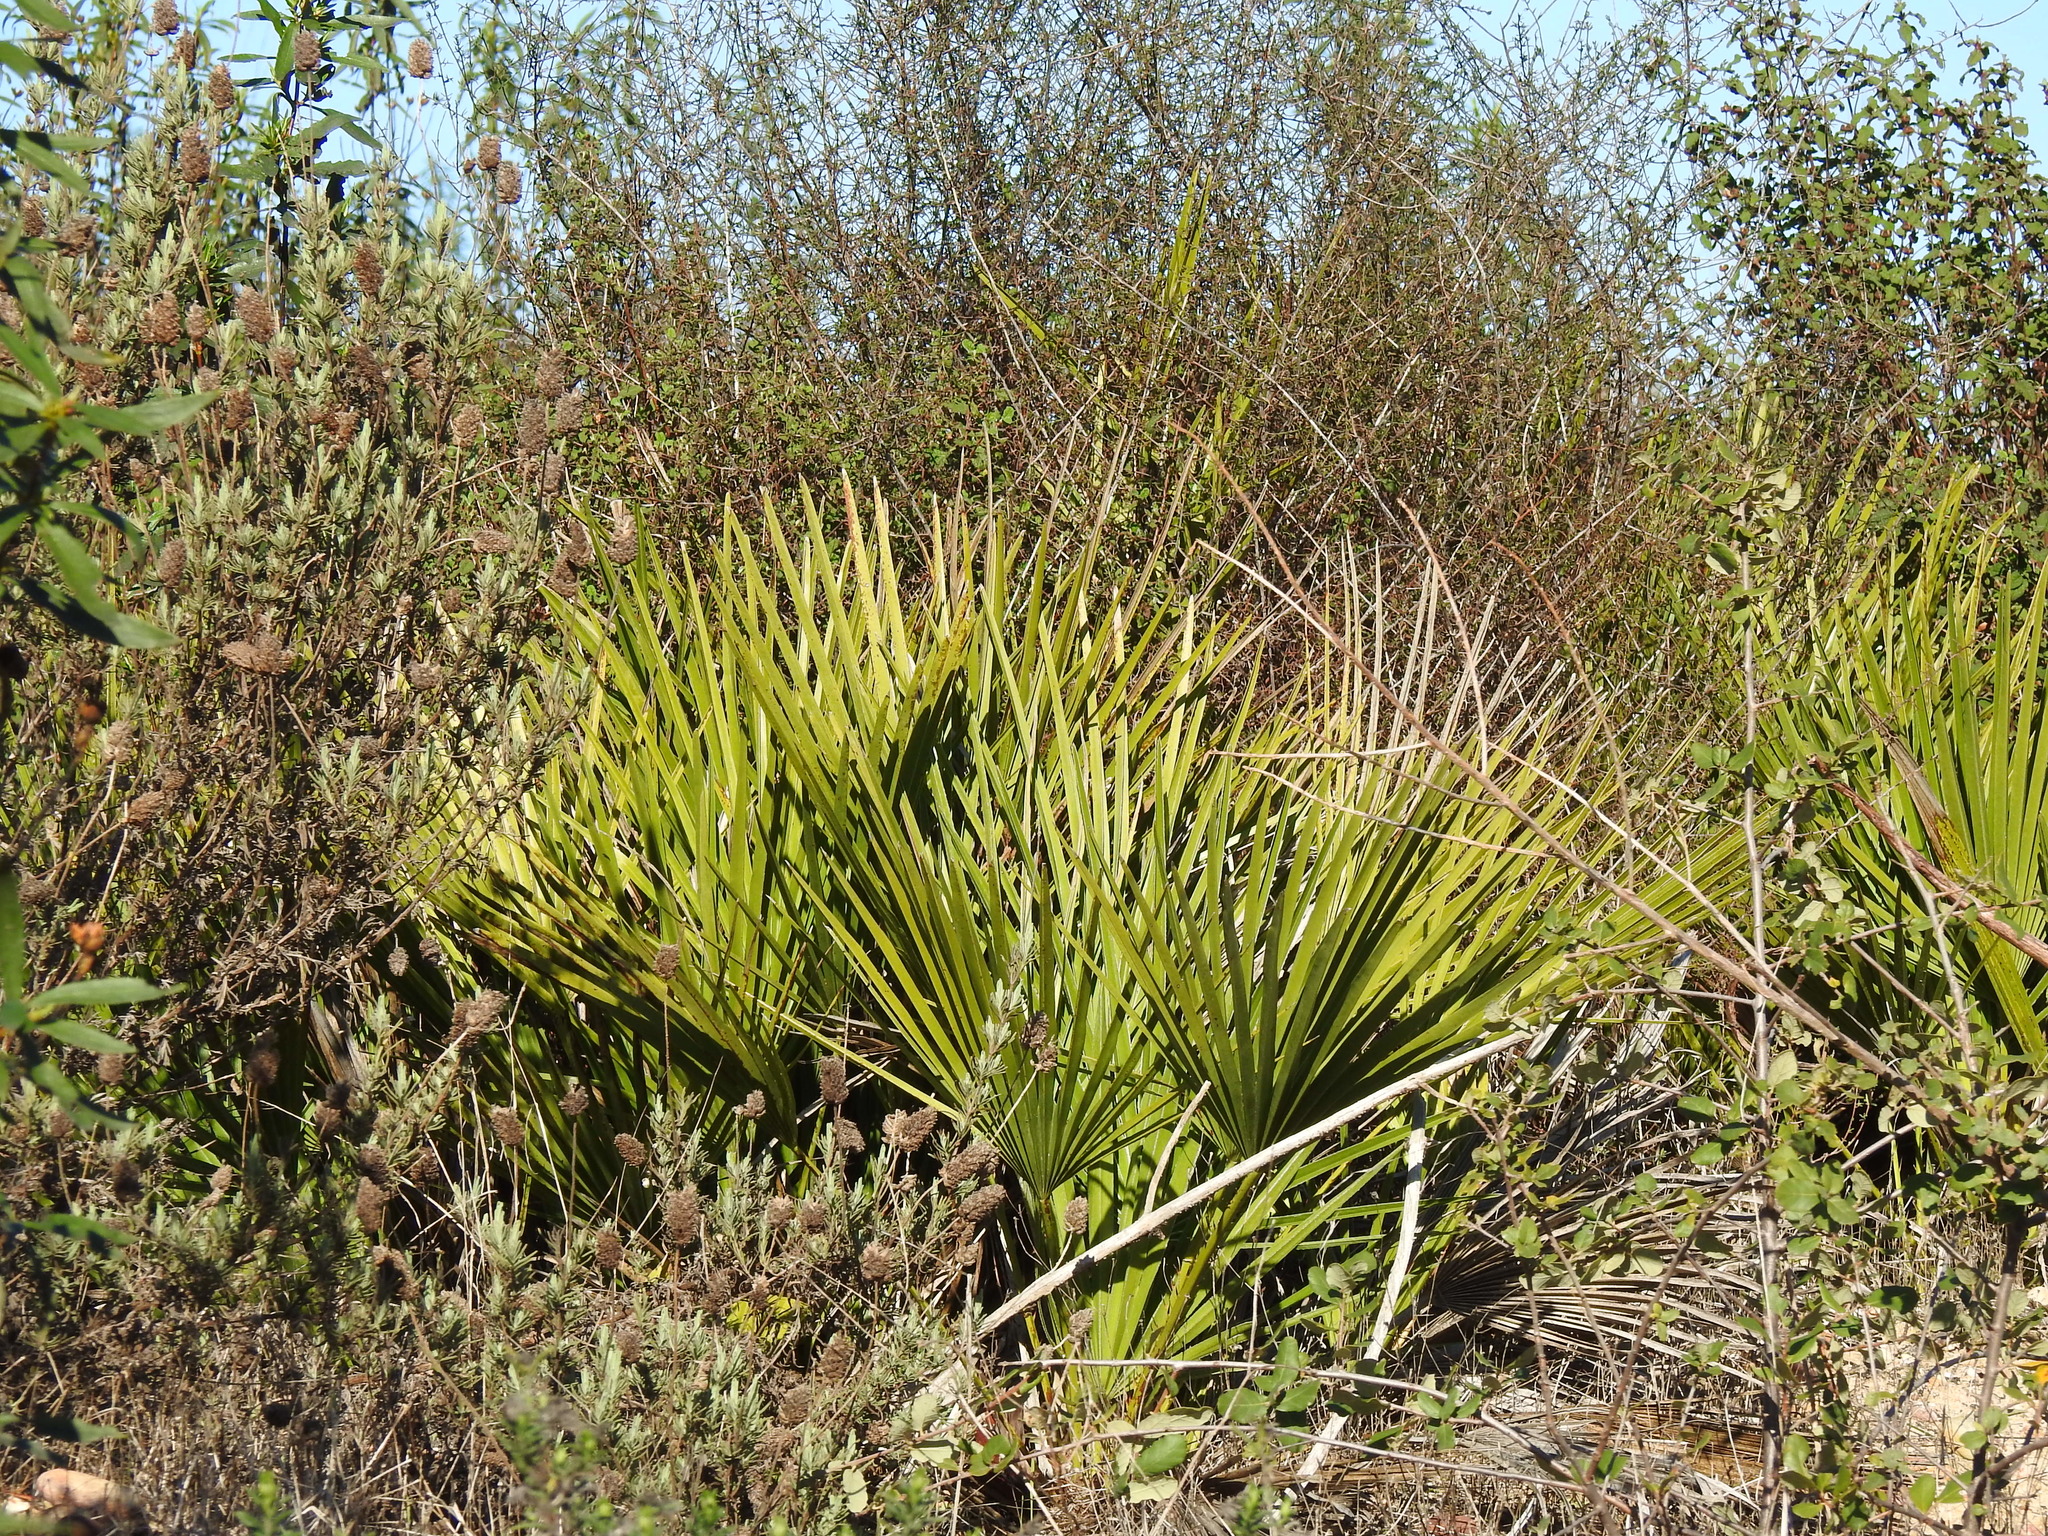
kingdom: Plantae
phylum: Tracheophyta
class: Liliopsida
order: Arecales
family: Arecaceae
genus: Chamaerops
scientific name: Chamaerops humilis
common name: Dwarf fan palm
